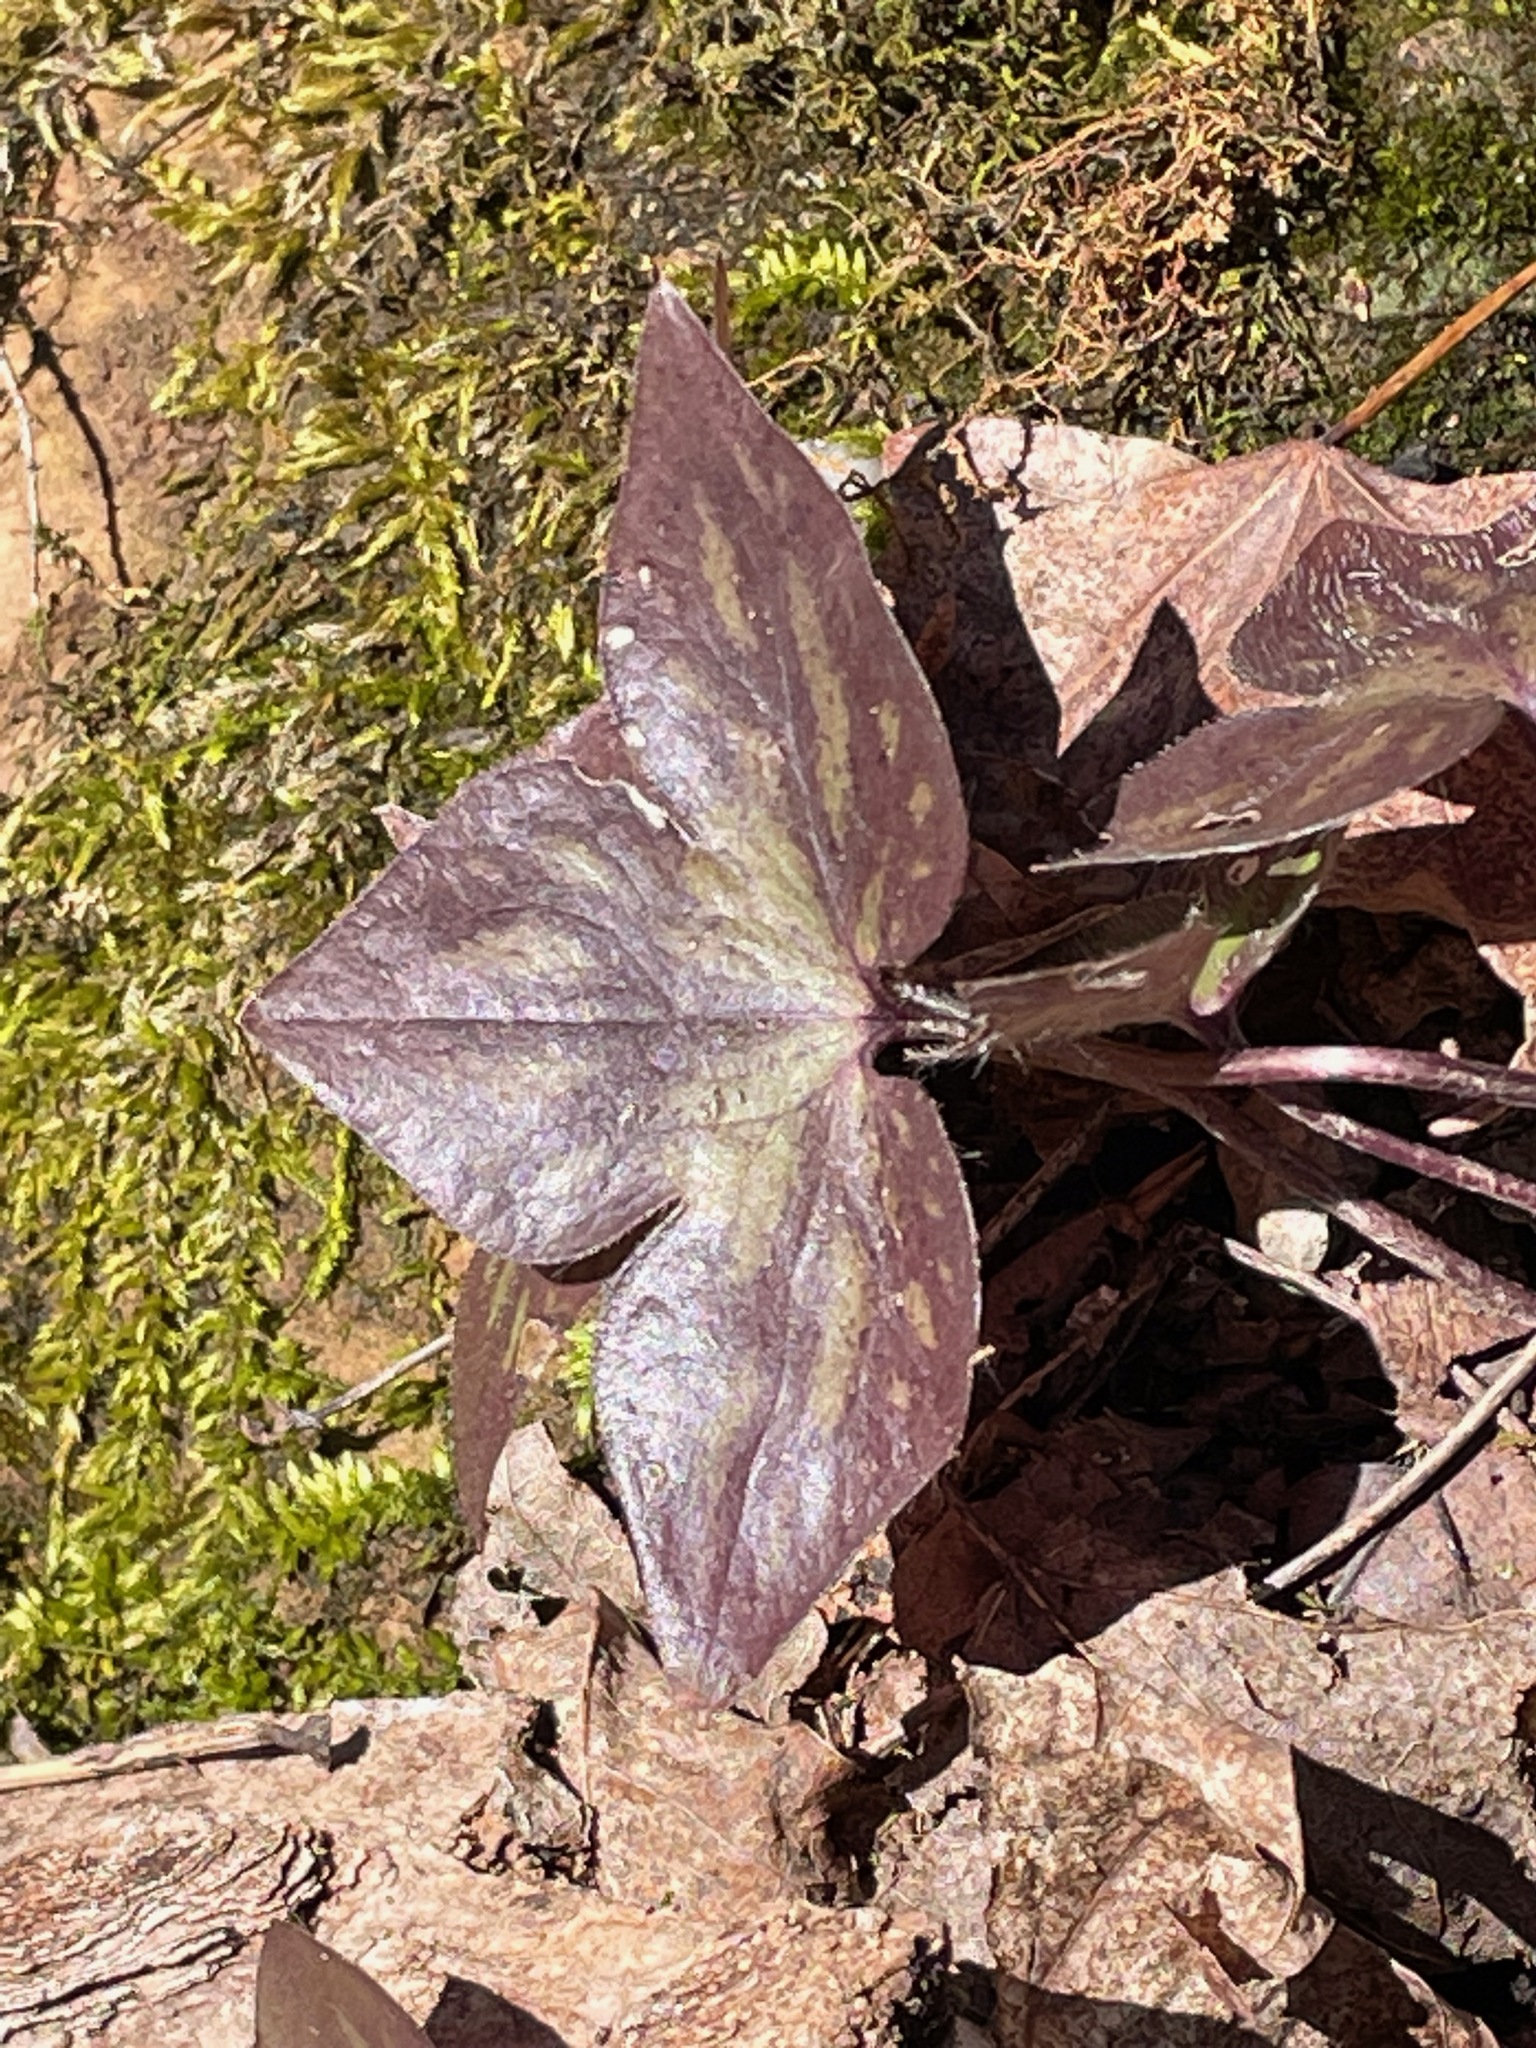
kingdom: Plantae
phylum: Tracheophyta
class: Magnoliopsida
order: Ranunculales
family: Ranunculaceae
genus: Hepatica
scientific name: Hepatica acutiloba
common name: Sharp-lobed hepatica
